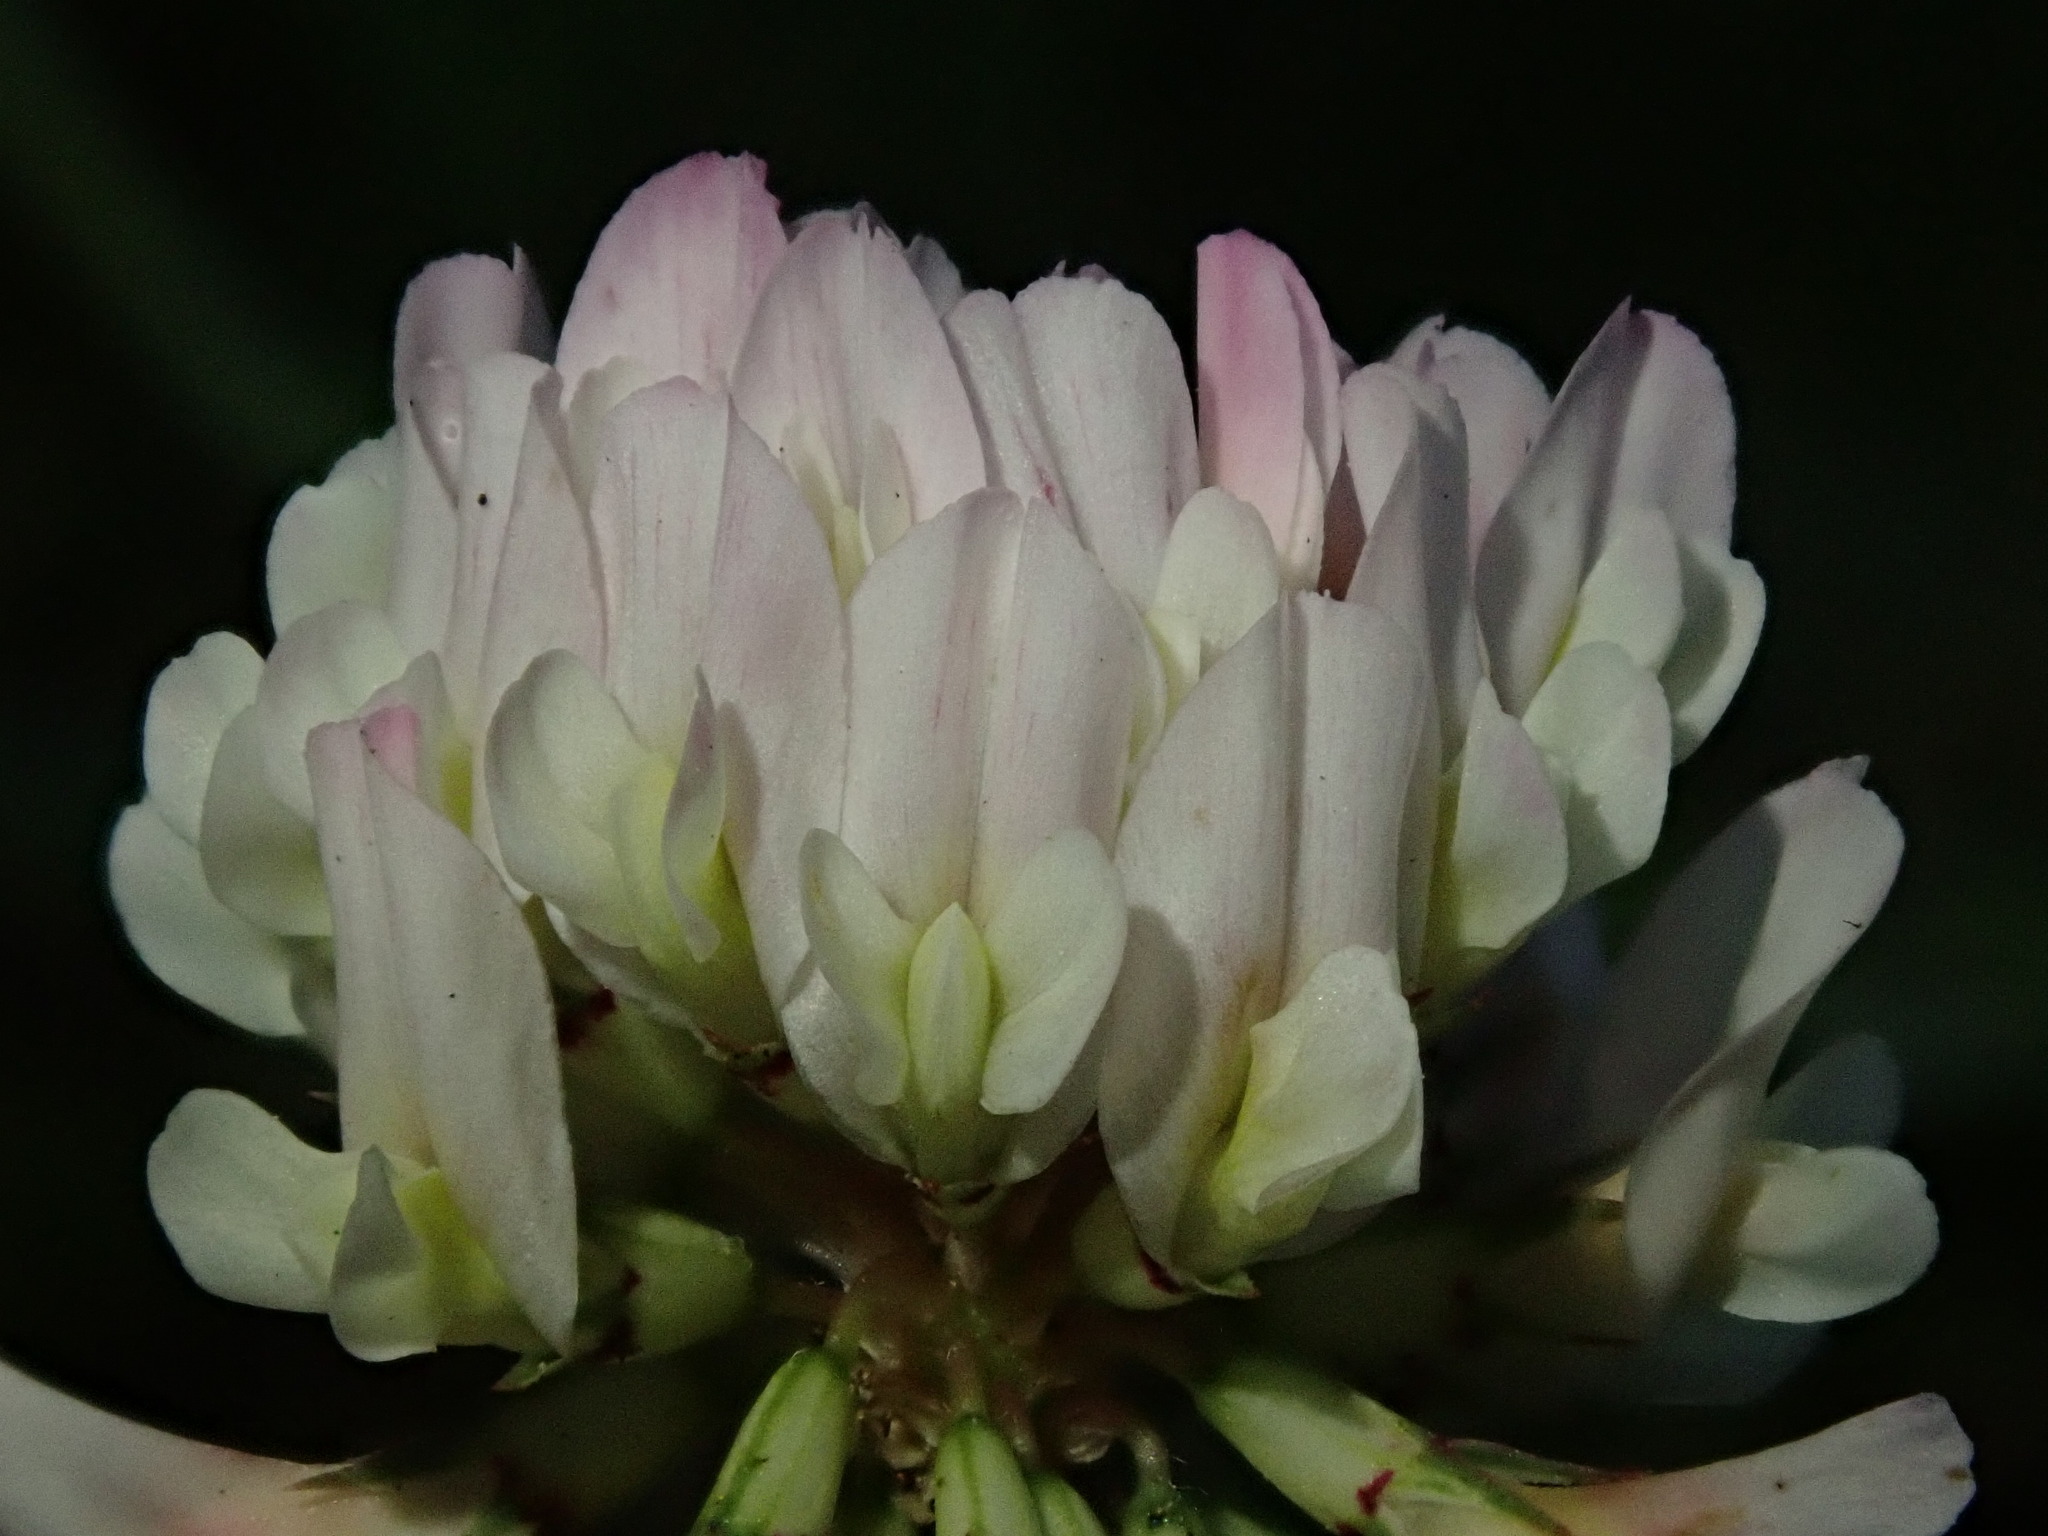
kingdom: Plantae
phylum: Tracheophyta
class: Magnoliopsida
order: Fabales
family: Fabaceae
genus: Trifolium
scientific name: Trifolium repens
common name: White clover
